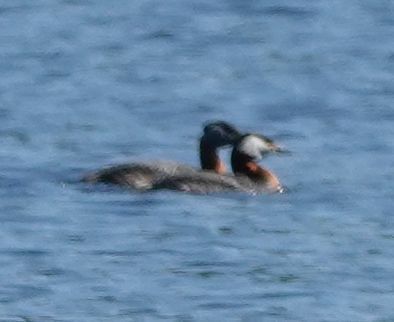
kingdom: Animalia
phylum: Chordata
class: Aves
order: Podicipediformes
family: Podicipedidae
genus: Podiceps
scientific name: Podiceps grisegena
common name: Red-necked grebe
